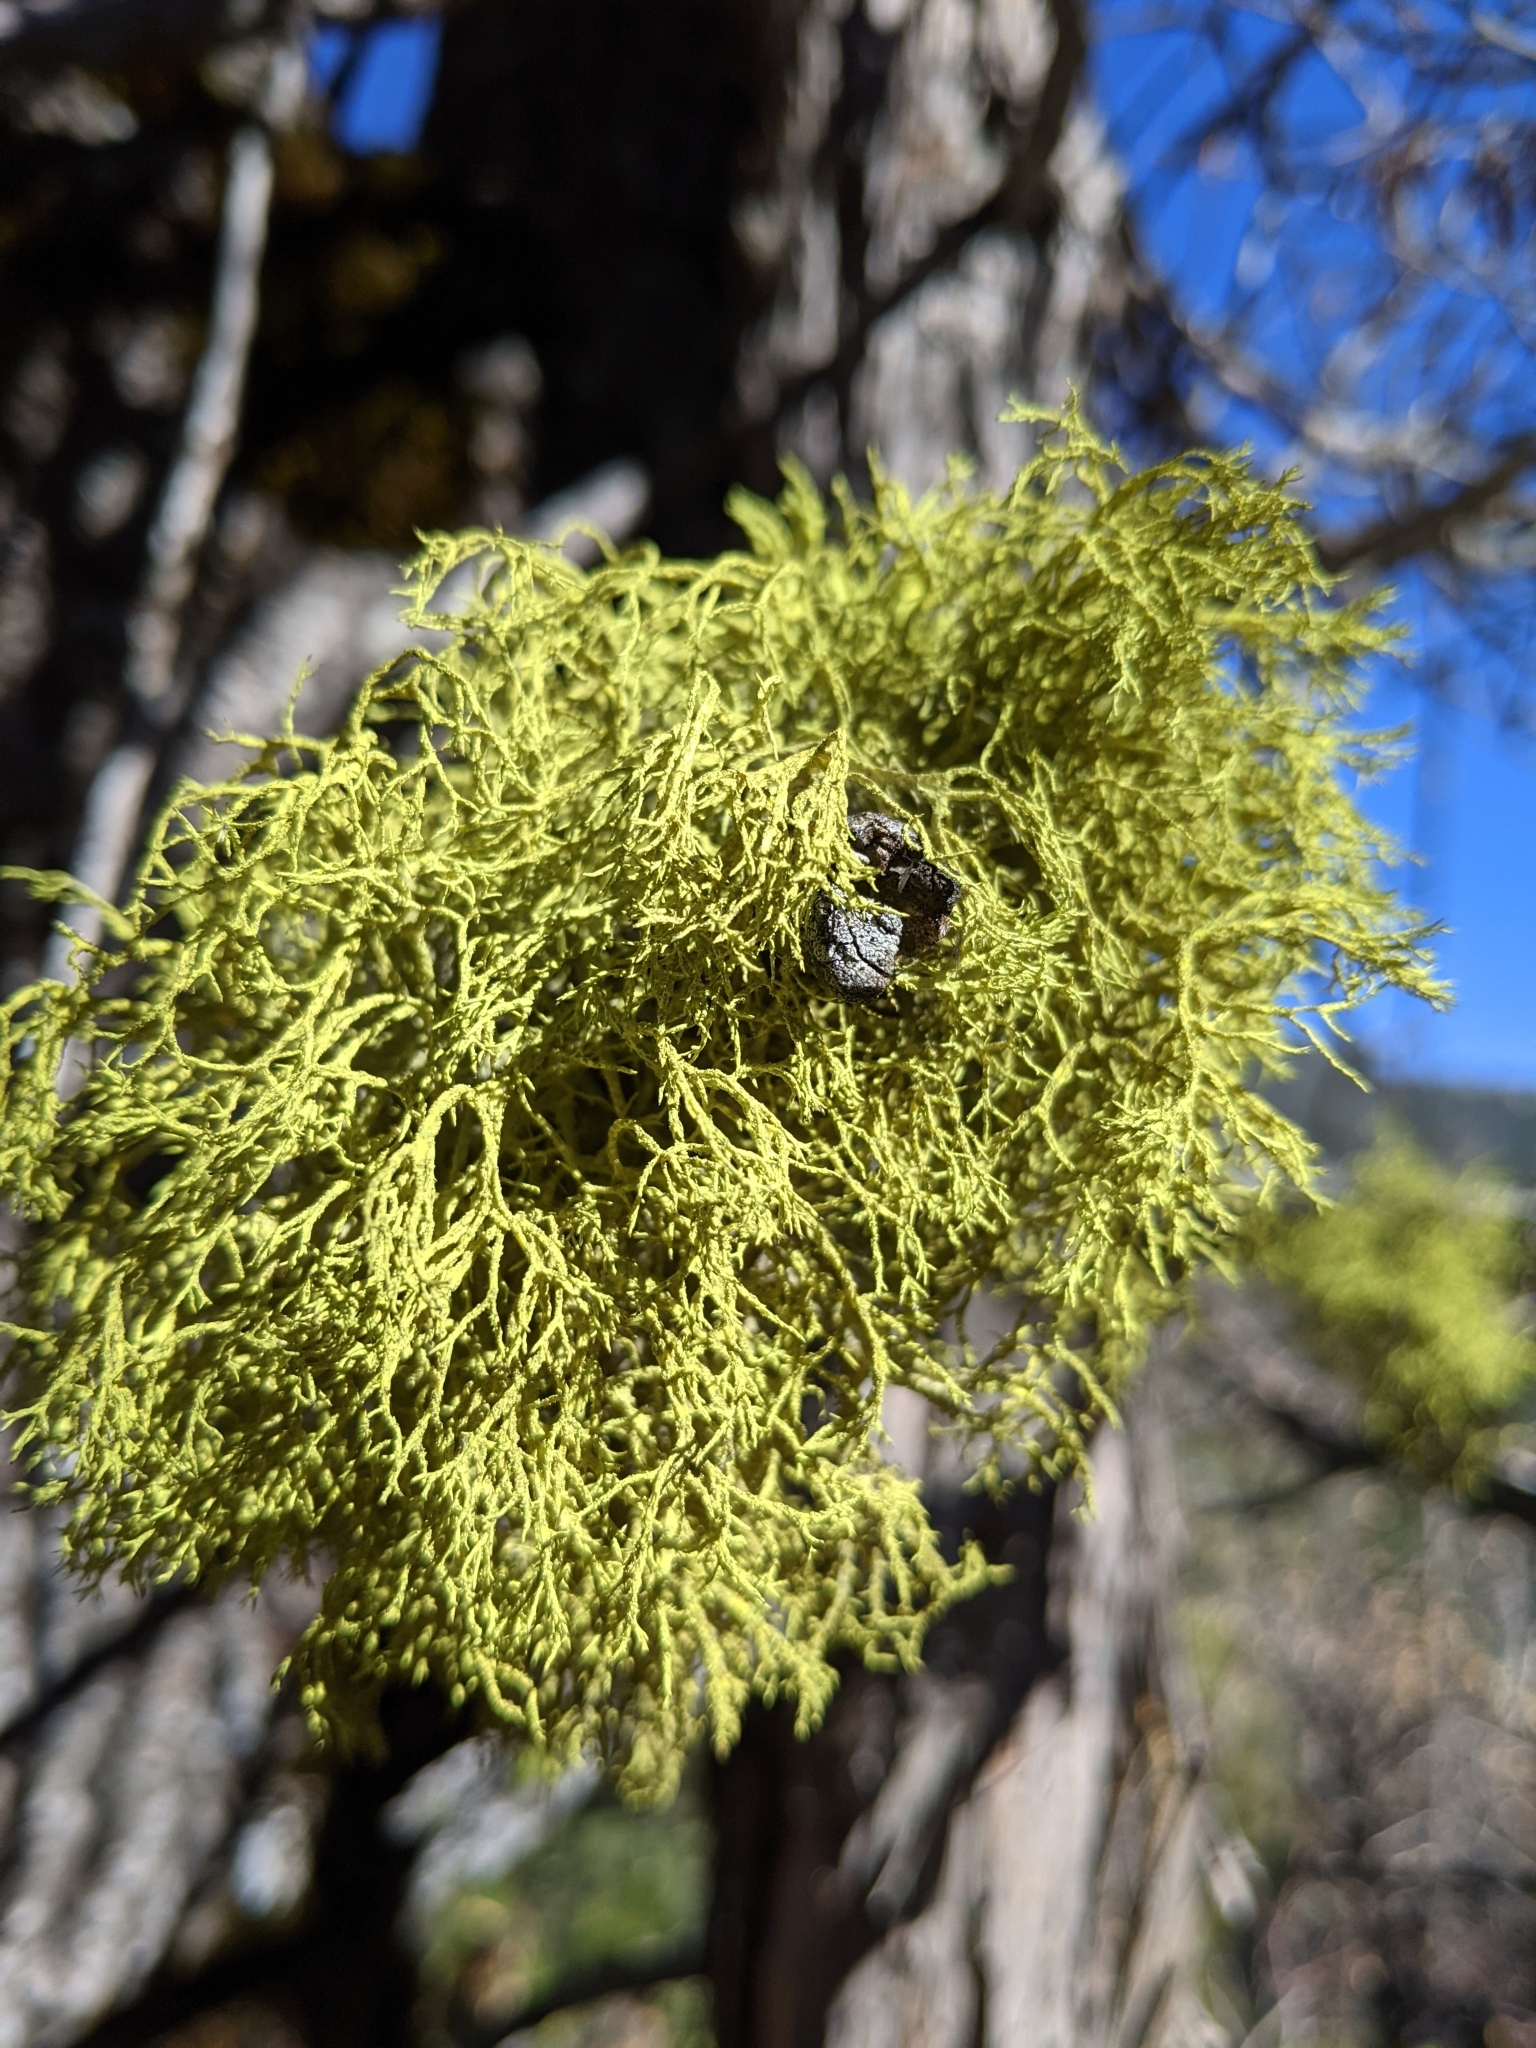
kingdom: Fungi
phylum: Ascomycota
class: Lecanoromycetes
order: Lecanorales
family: Parmeliaceae
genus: Letharia
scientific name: Letharia vulpina
